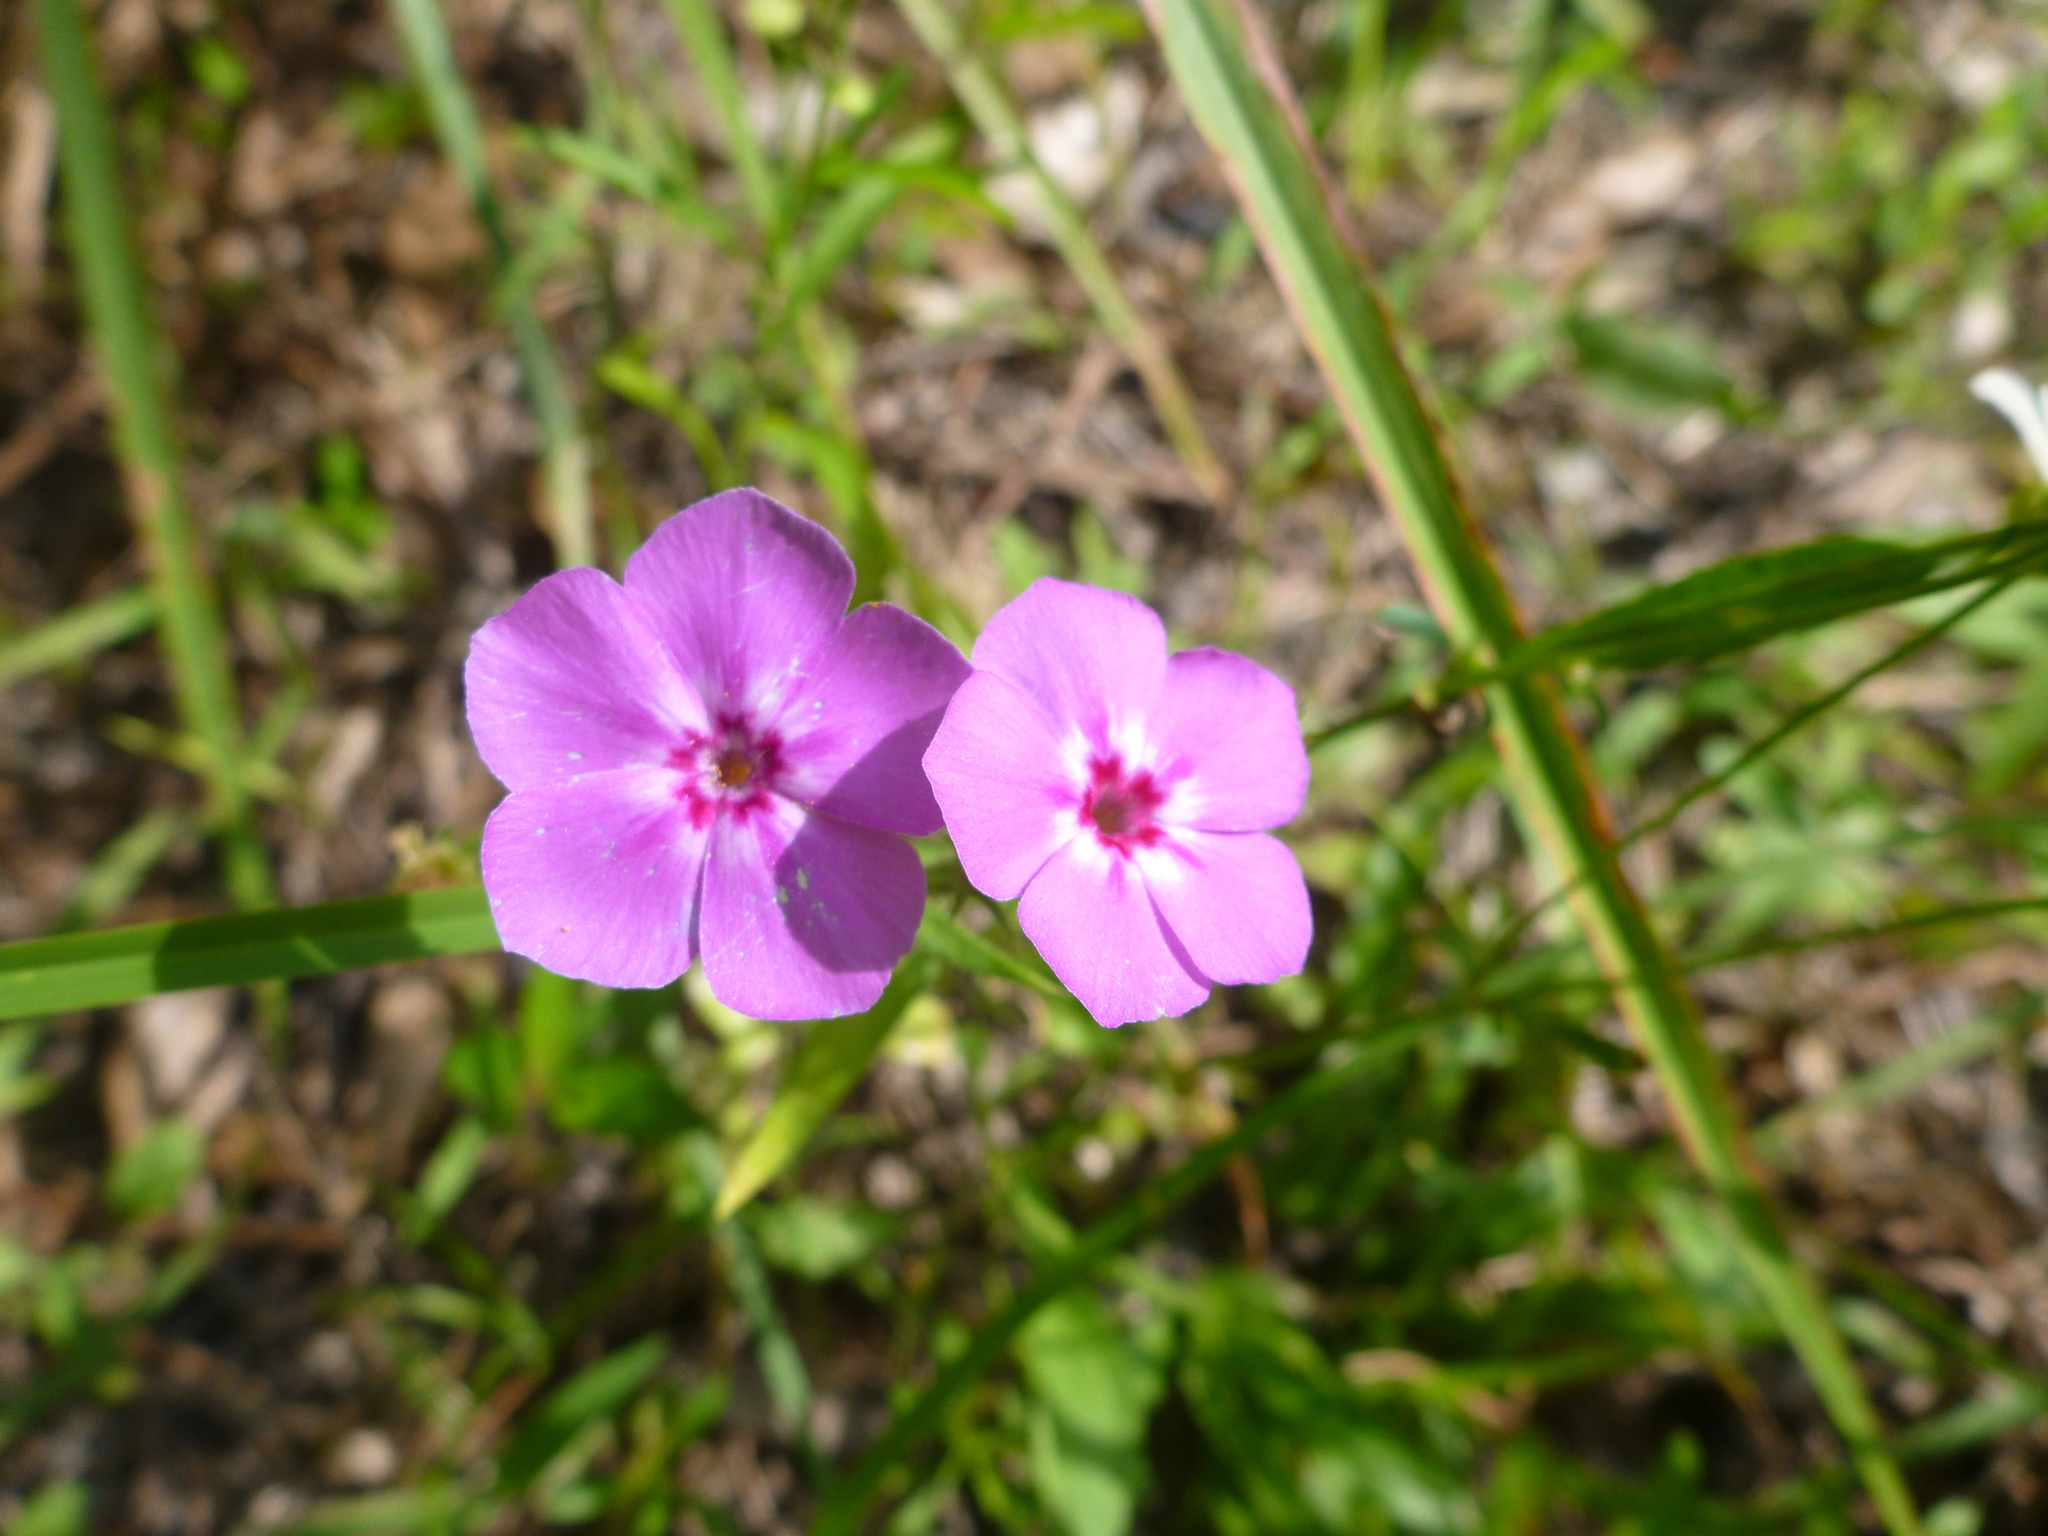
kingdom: Plantae
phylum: Tracheophyta
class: Magnoliopsida
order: Ericales
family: Polemoniaceae
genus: Phlox
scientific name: Phlox drummondii
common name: Drummond's phlox
